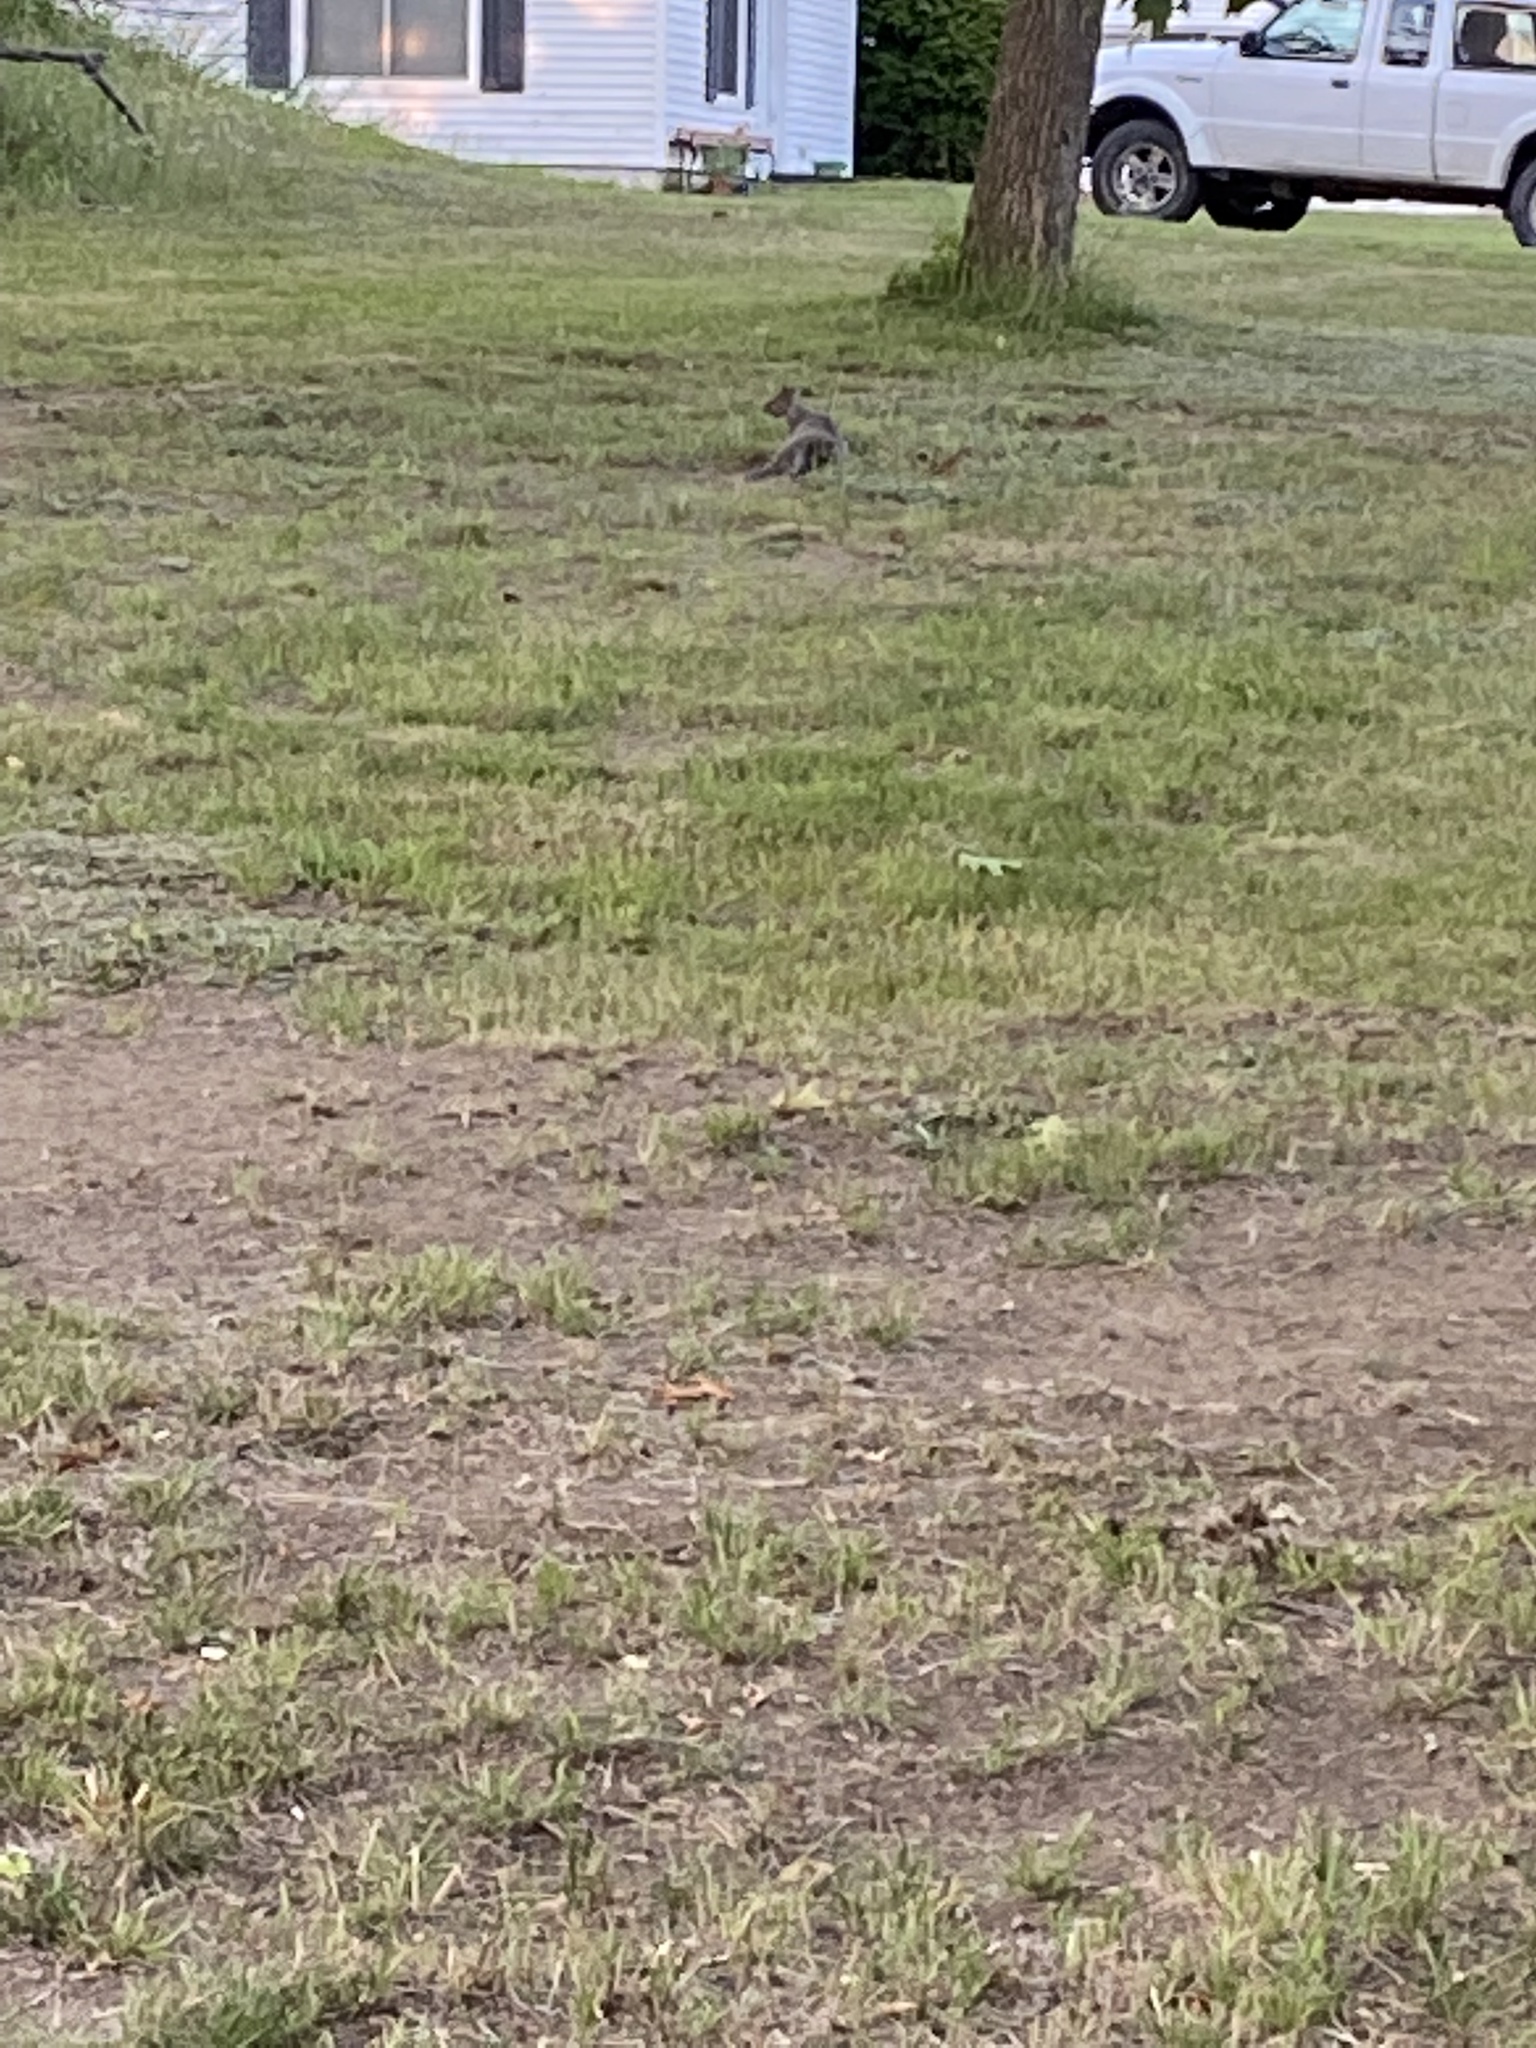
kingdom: Animalia
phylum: Chordata
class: Mammalia
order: Rodentia
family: Sciuridae
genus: Sciurus
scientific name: Sciurus carolinensis
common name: Eastern gray squirrel
